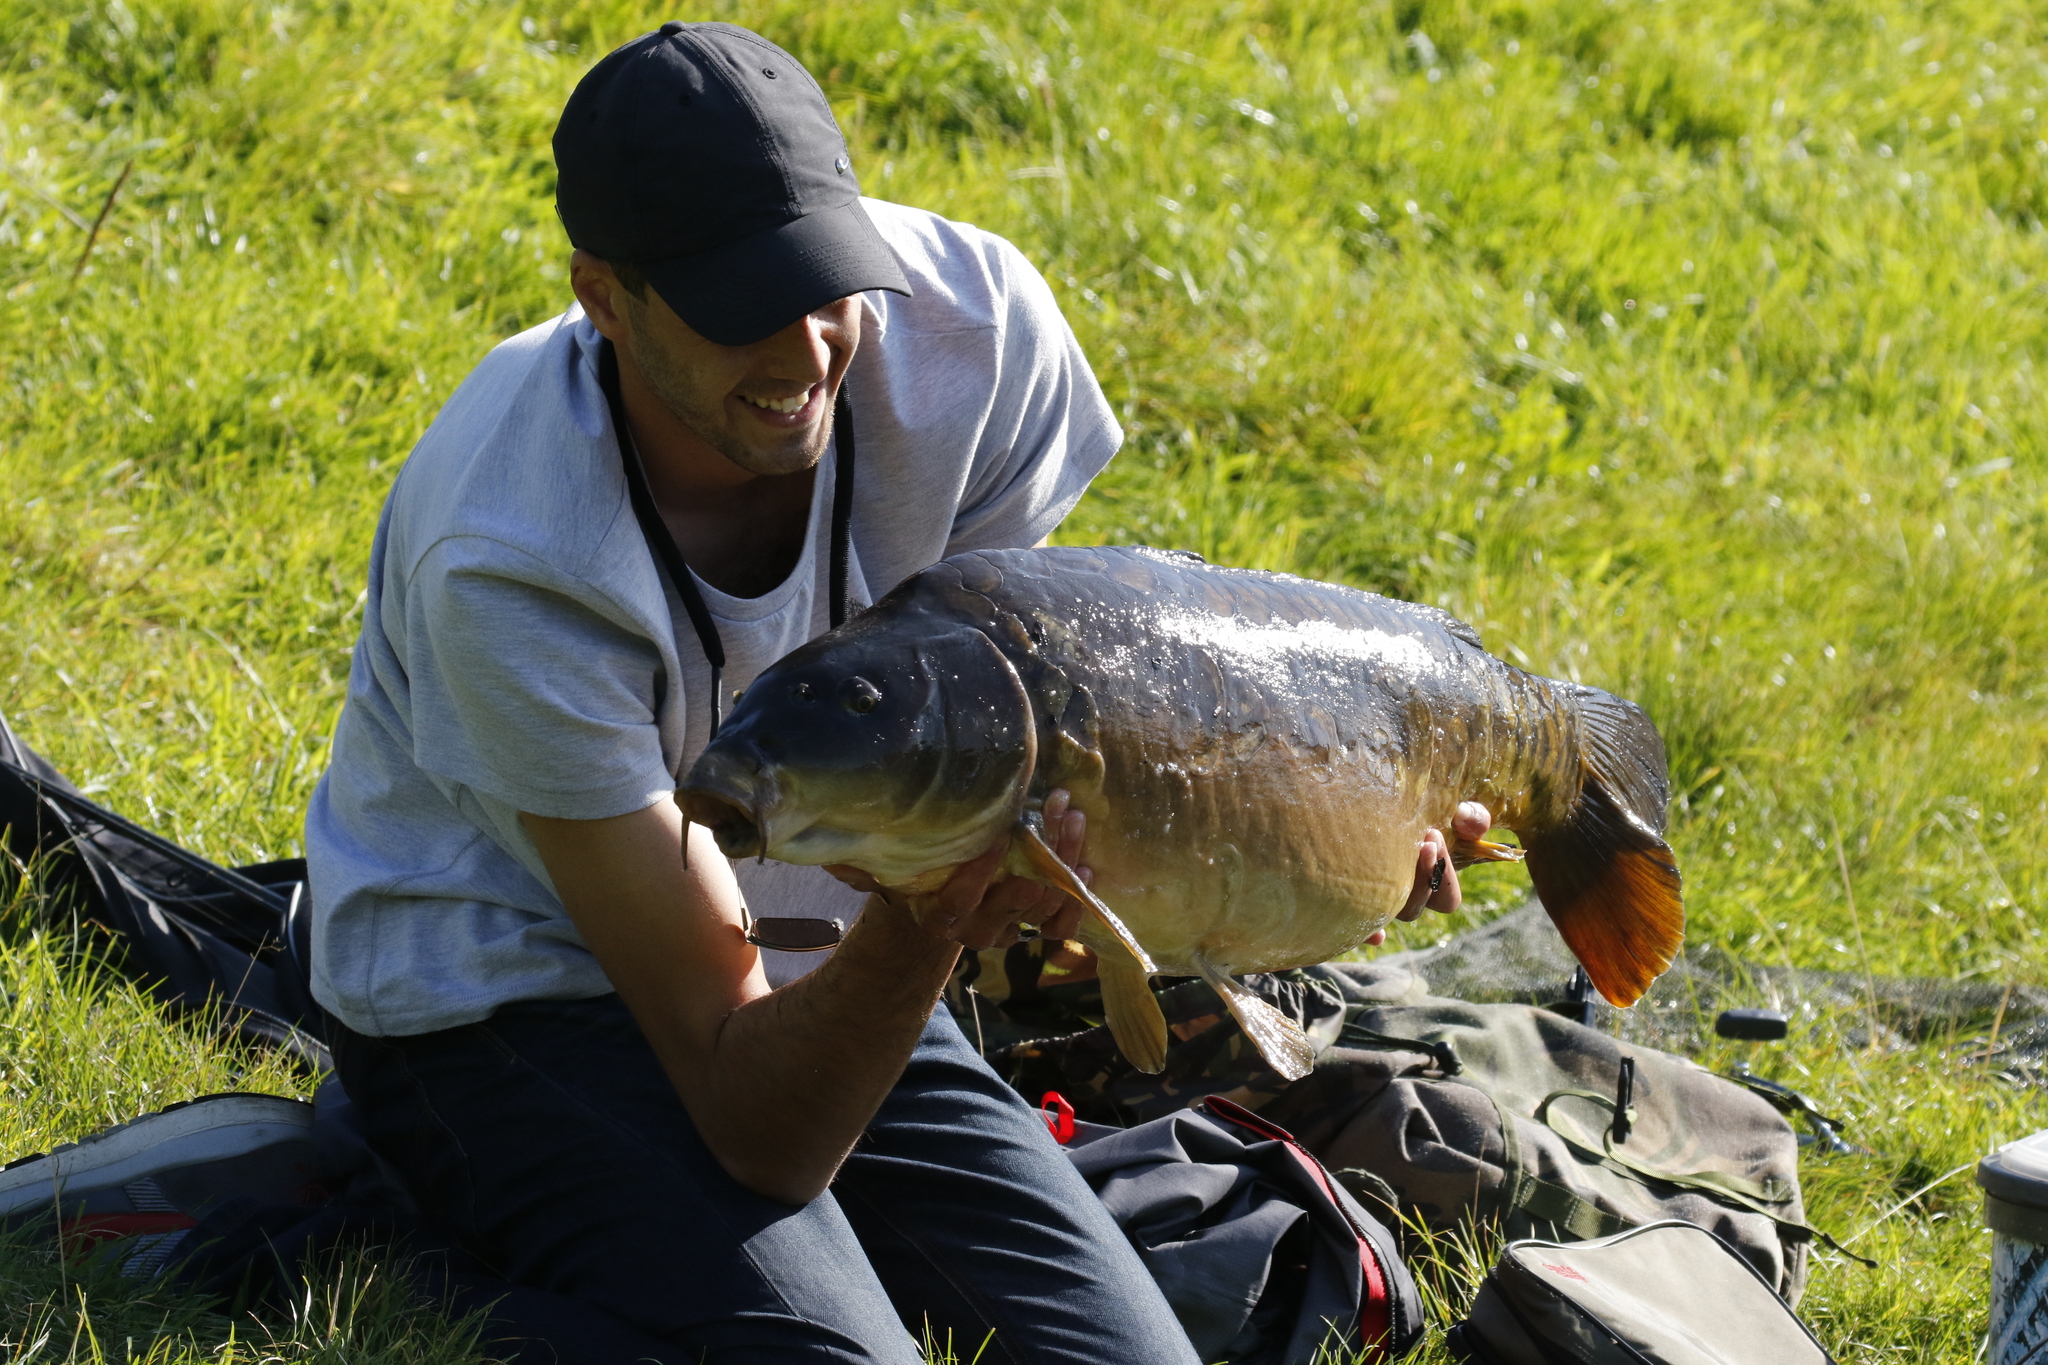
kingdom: Animalia
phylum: Chordata
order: Cypriniformes
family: Cyprinidae
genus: Cyprinus
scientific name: Cyprinus carpio
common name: Common carp
